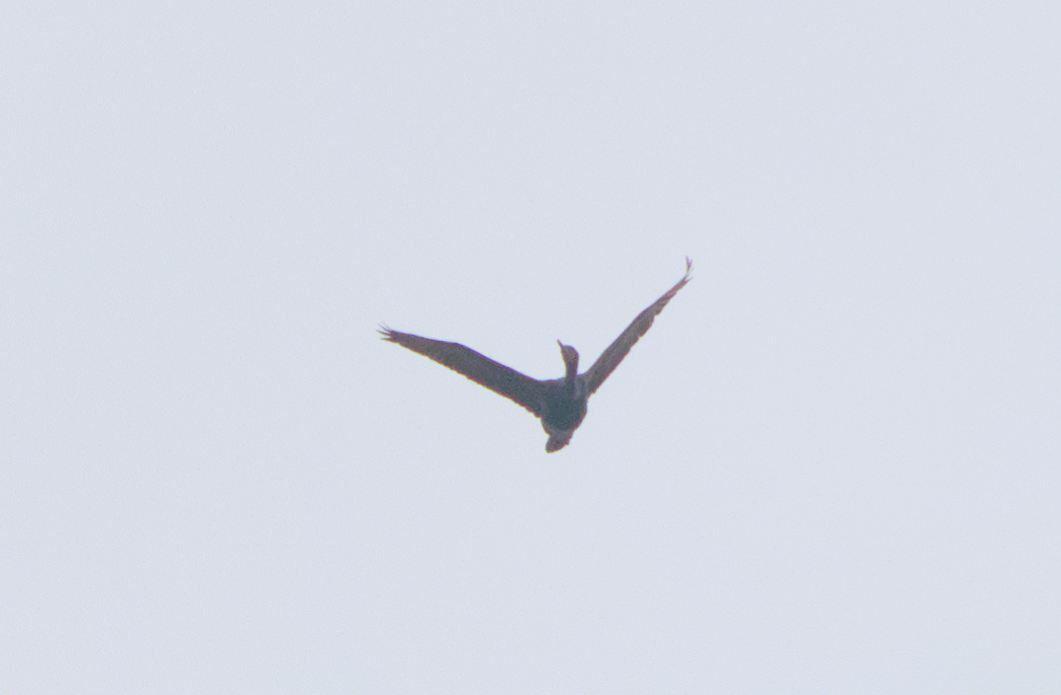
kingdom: Animalia
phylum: Chordata
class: Aves
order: Suliformes
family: Phalacrocoracidae
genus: Phalacrocorax
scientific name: Phalacrocorax auritus
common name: Double-crested cormorant
